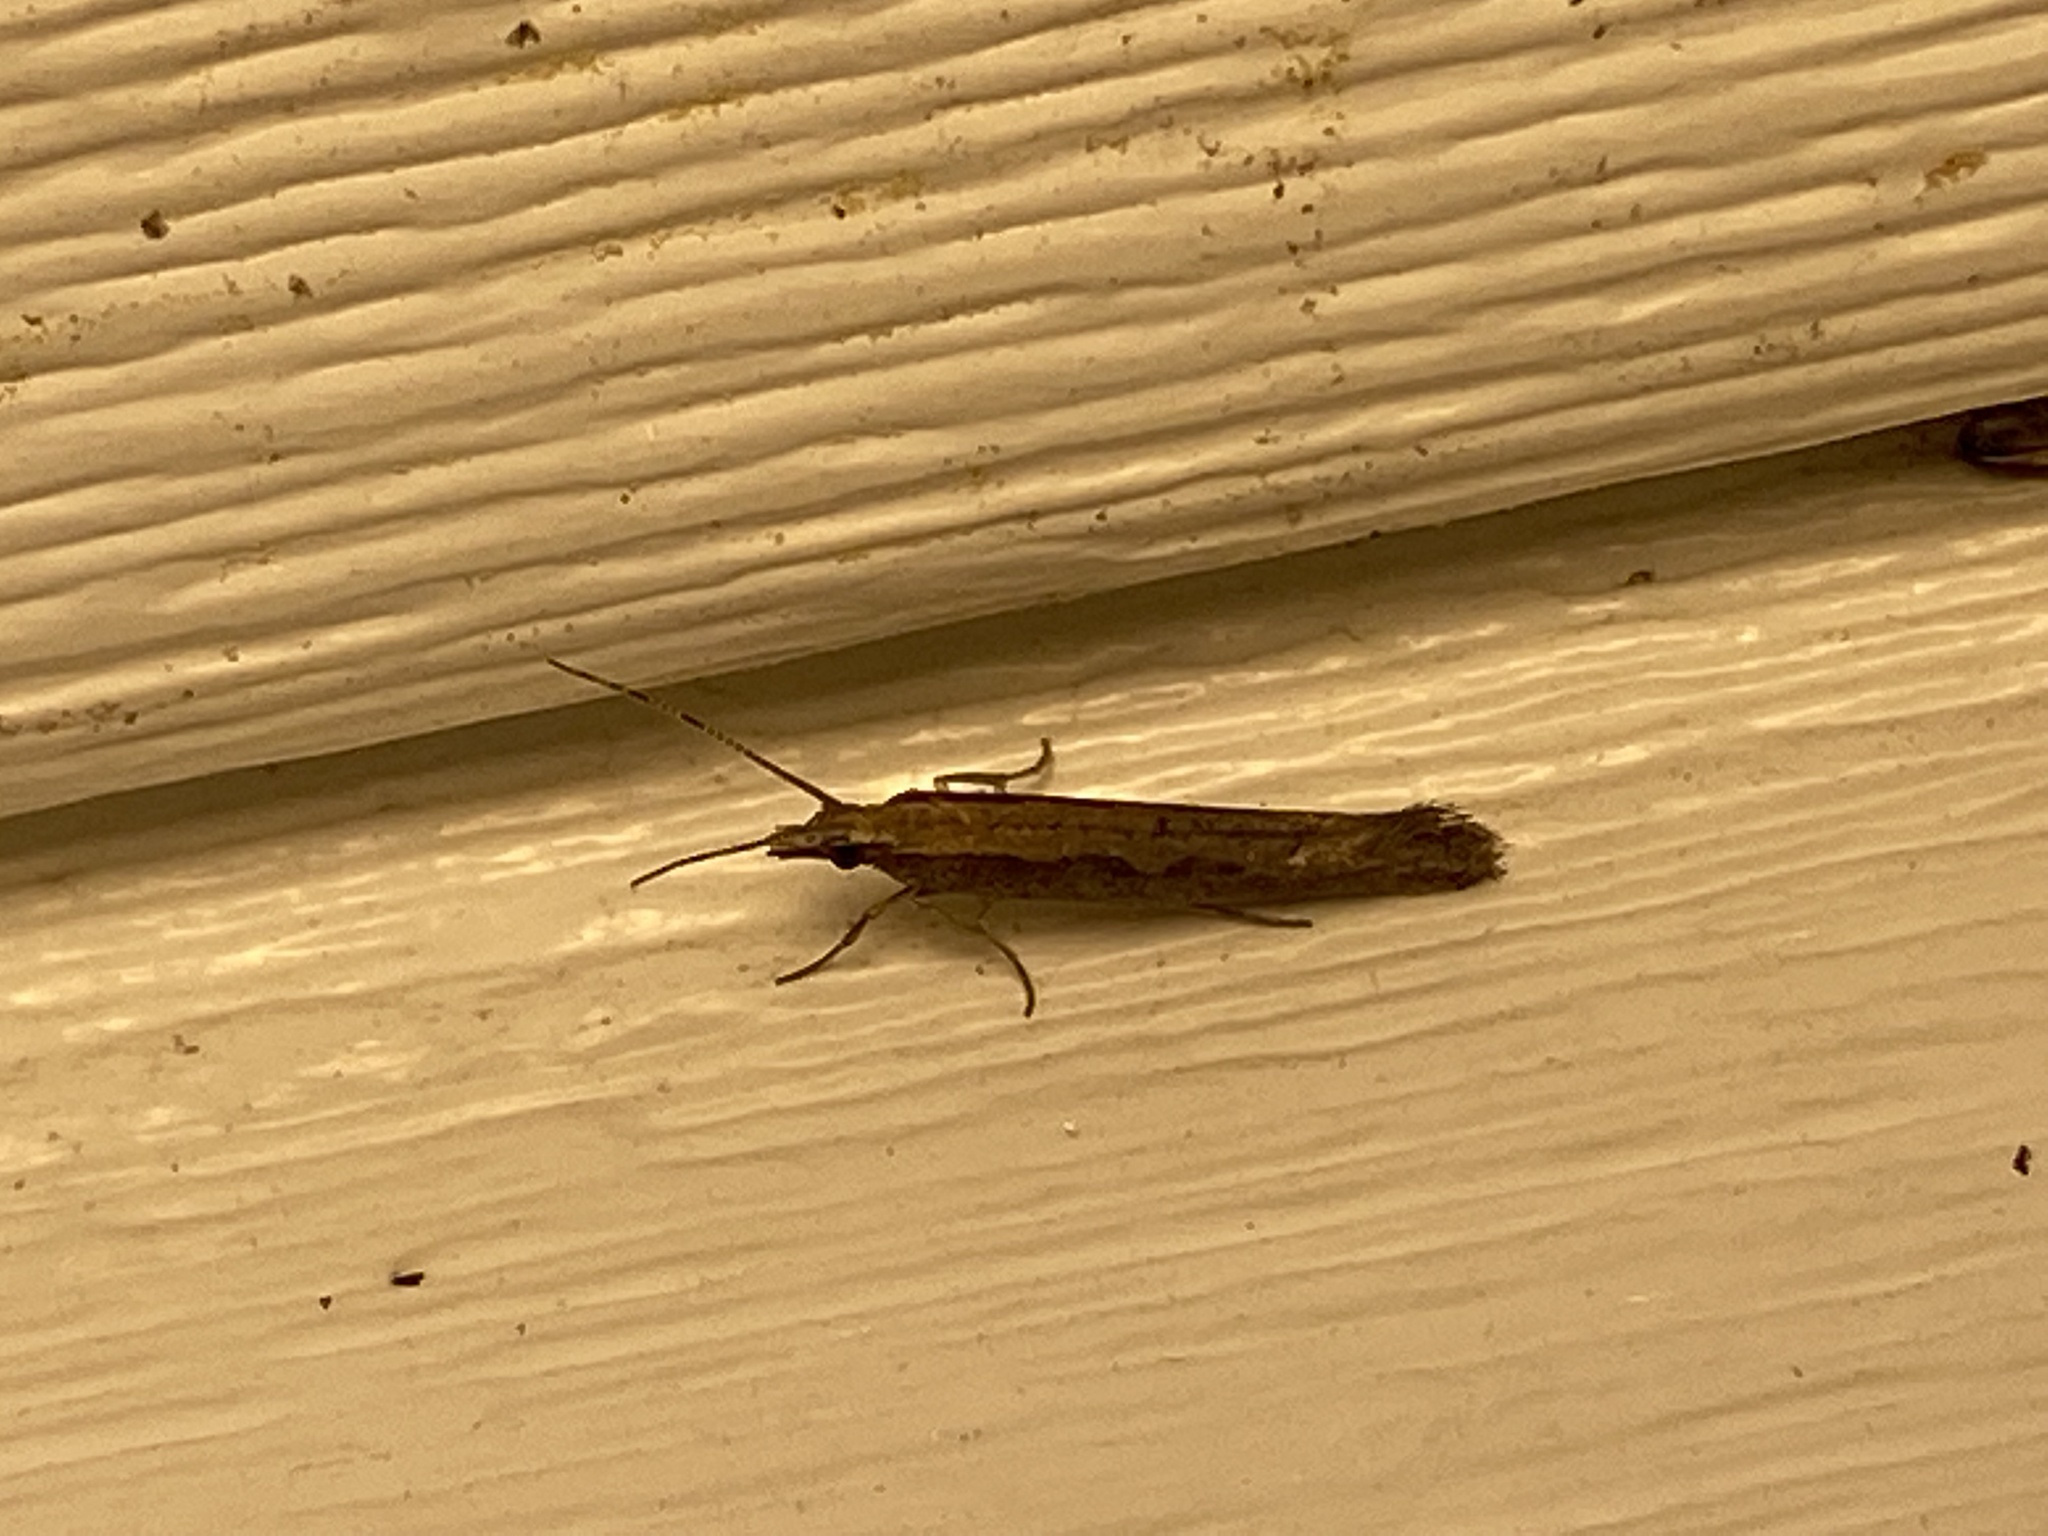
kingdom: Animalia
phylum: Arthropoda
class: Insecta
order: Lepidoptera
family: Plutellidae
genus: Plutella
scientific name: Plutella xylostella
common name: Diamond-back moth
